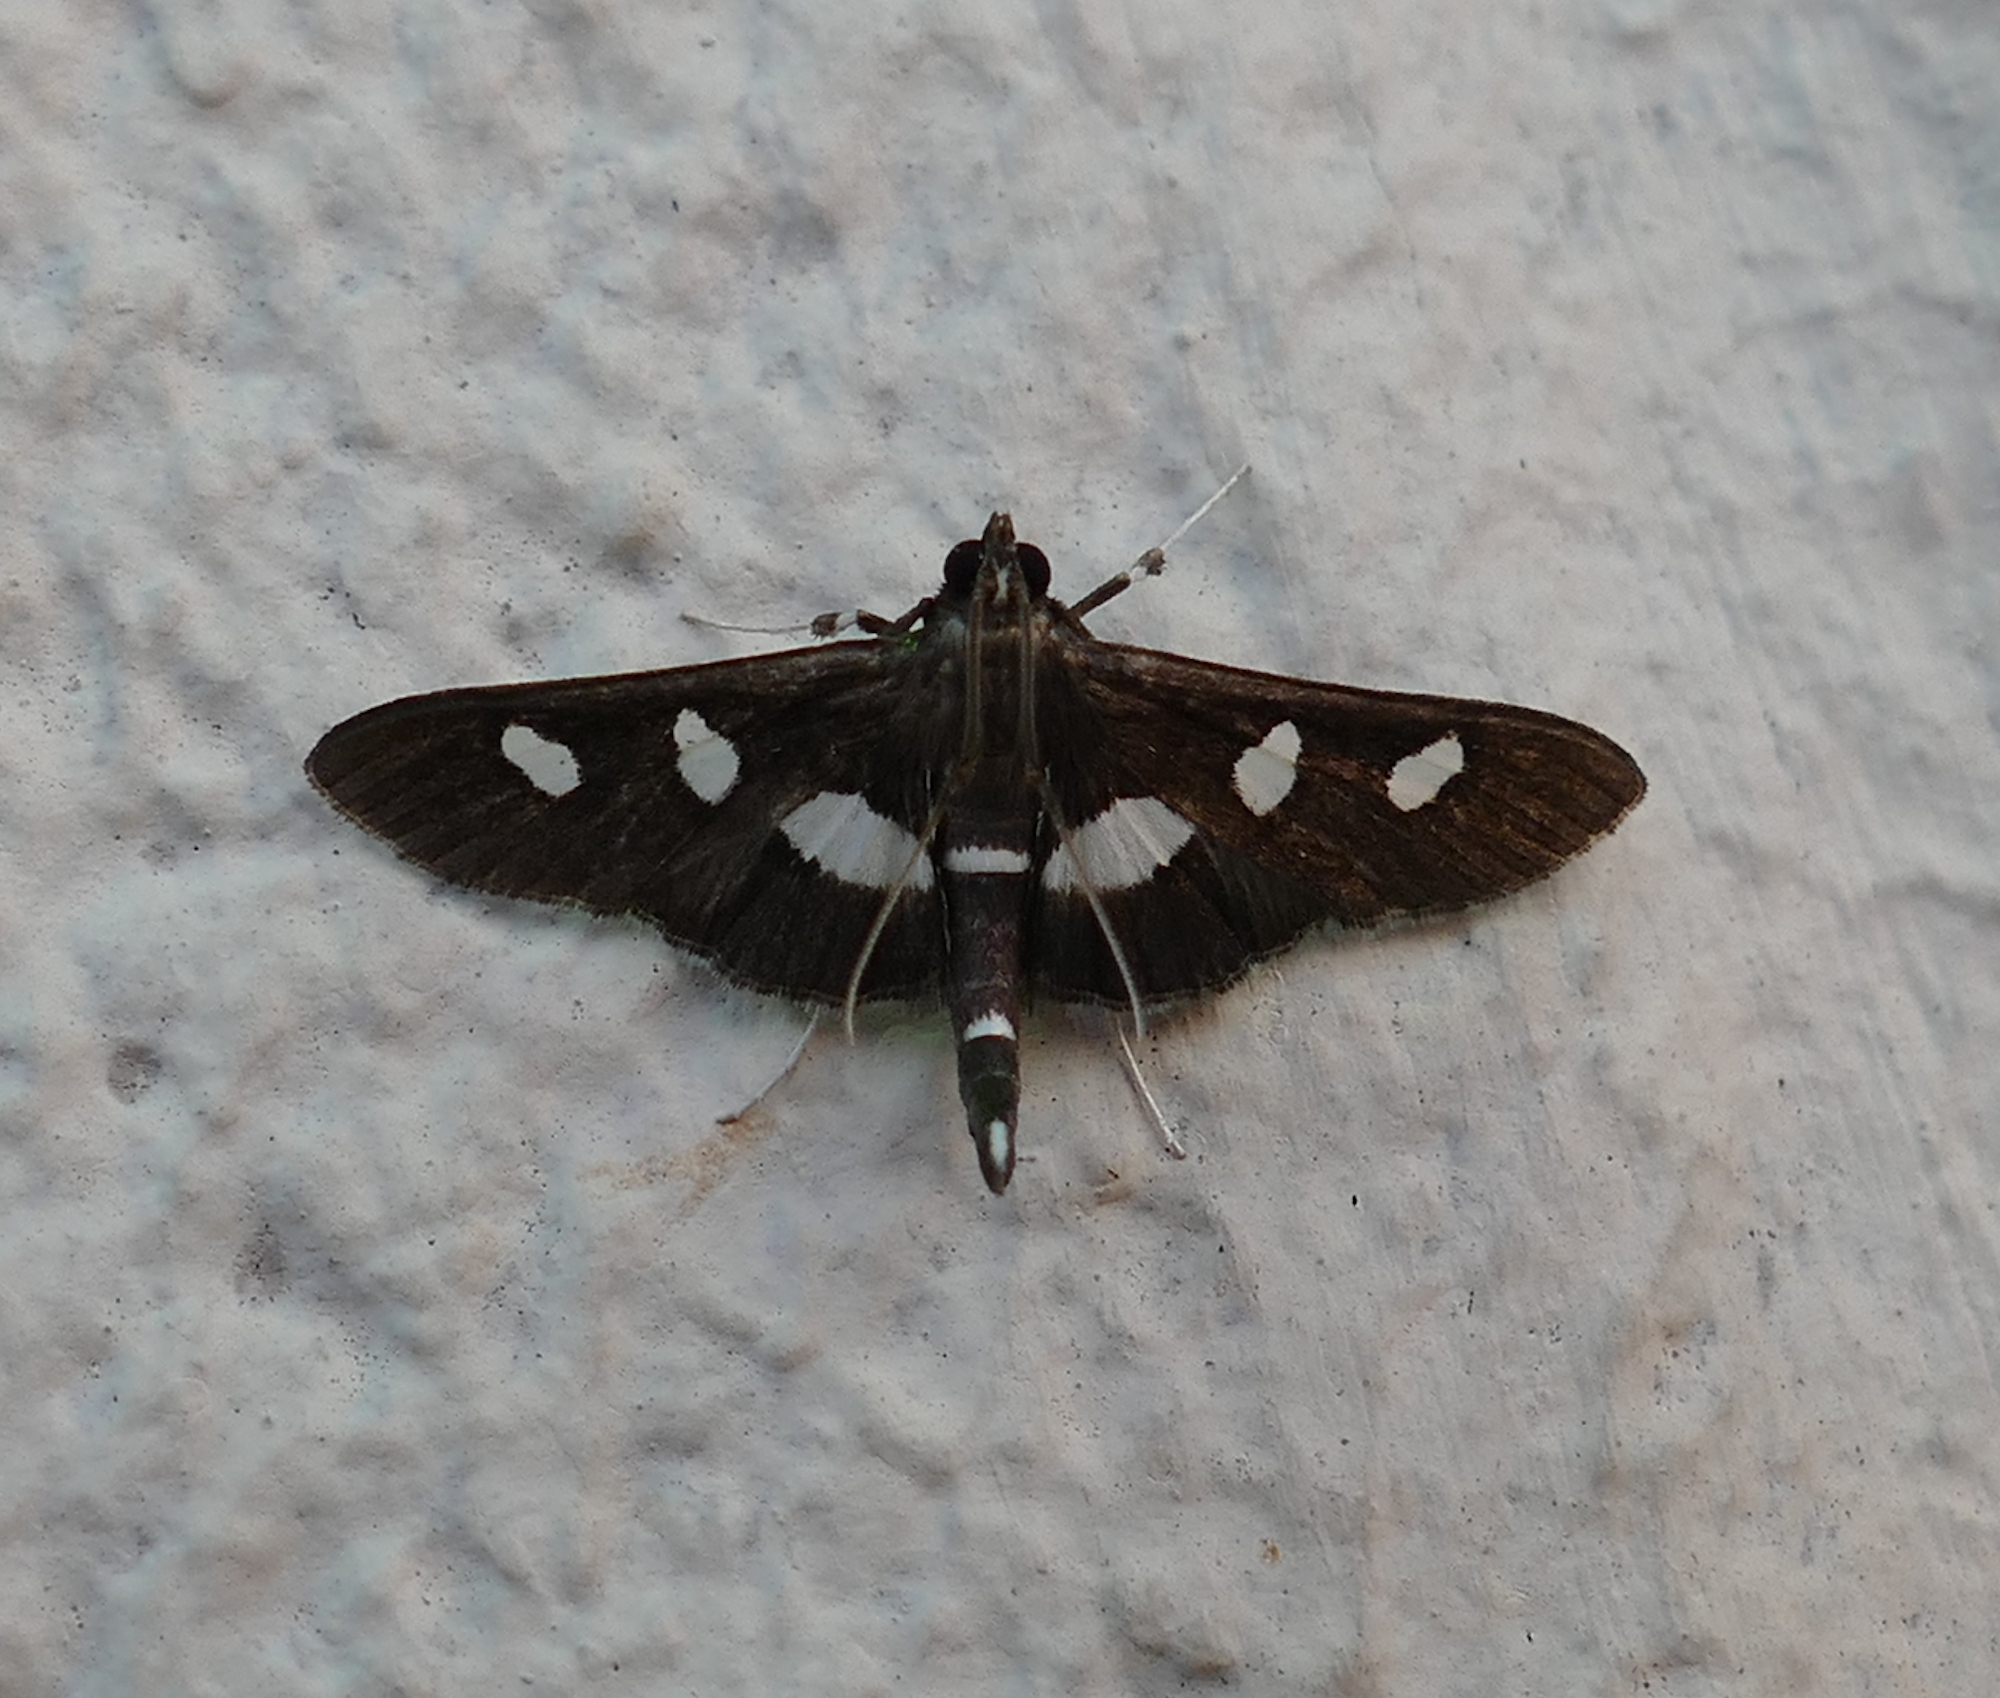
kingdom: Animalia
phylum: Arthropoda
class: Insecta
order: Lepidoptera
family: Crambidae
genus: Desmia
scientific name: Desmia
